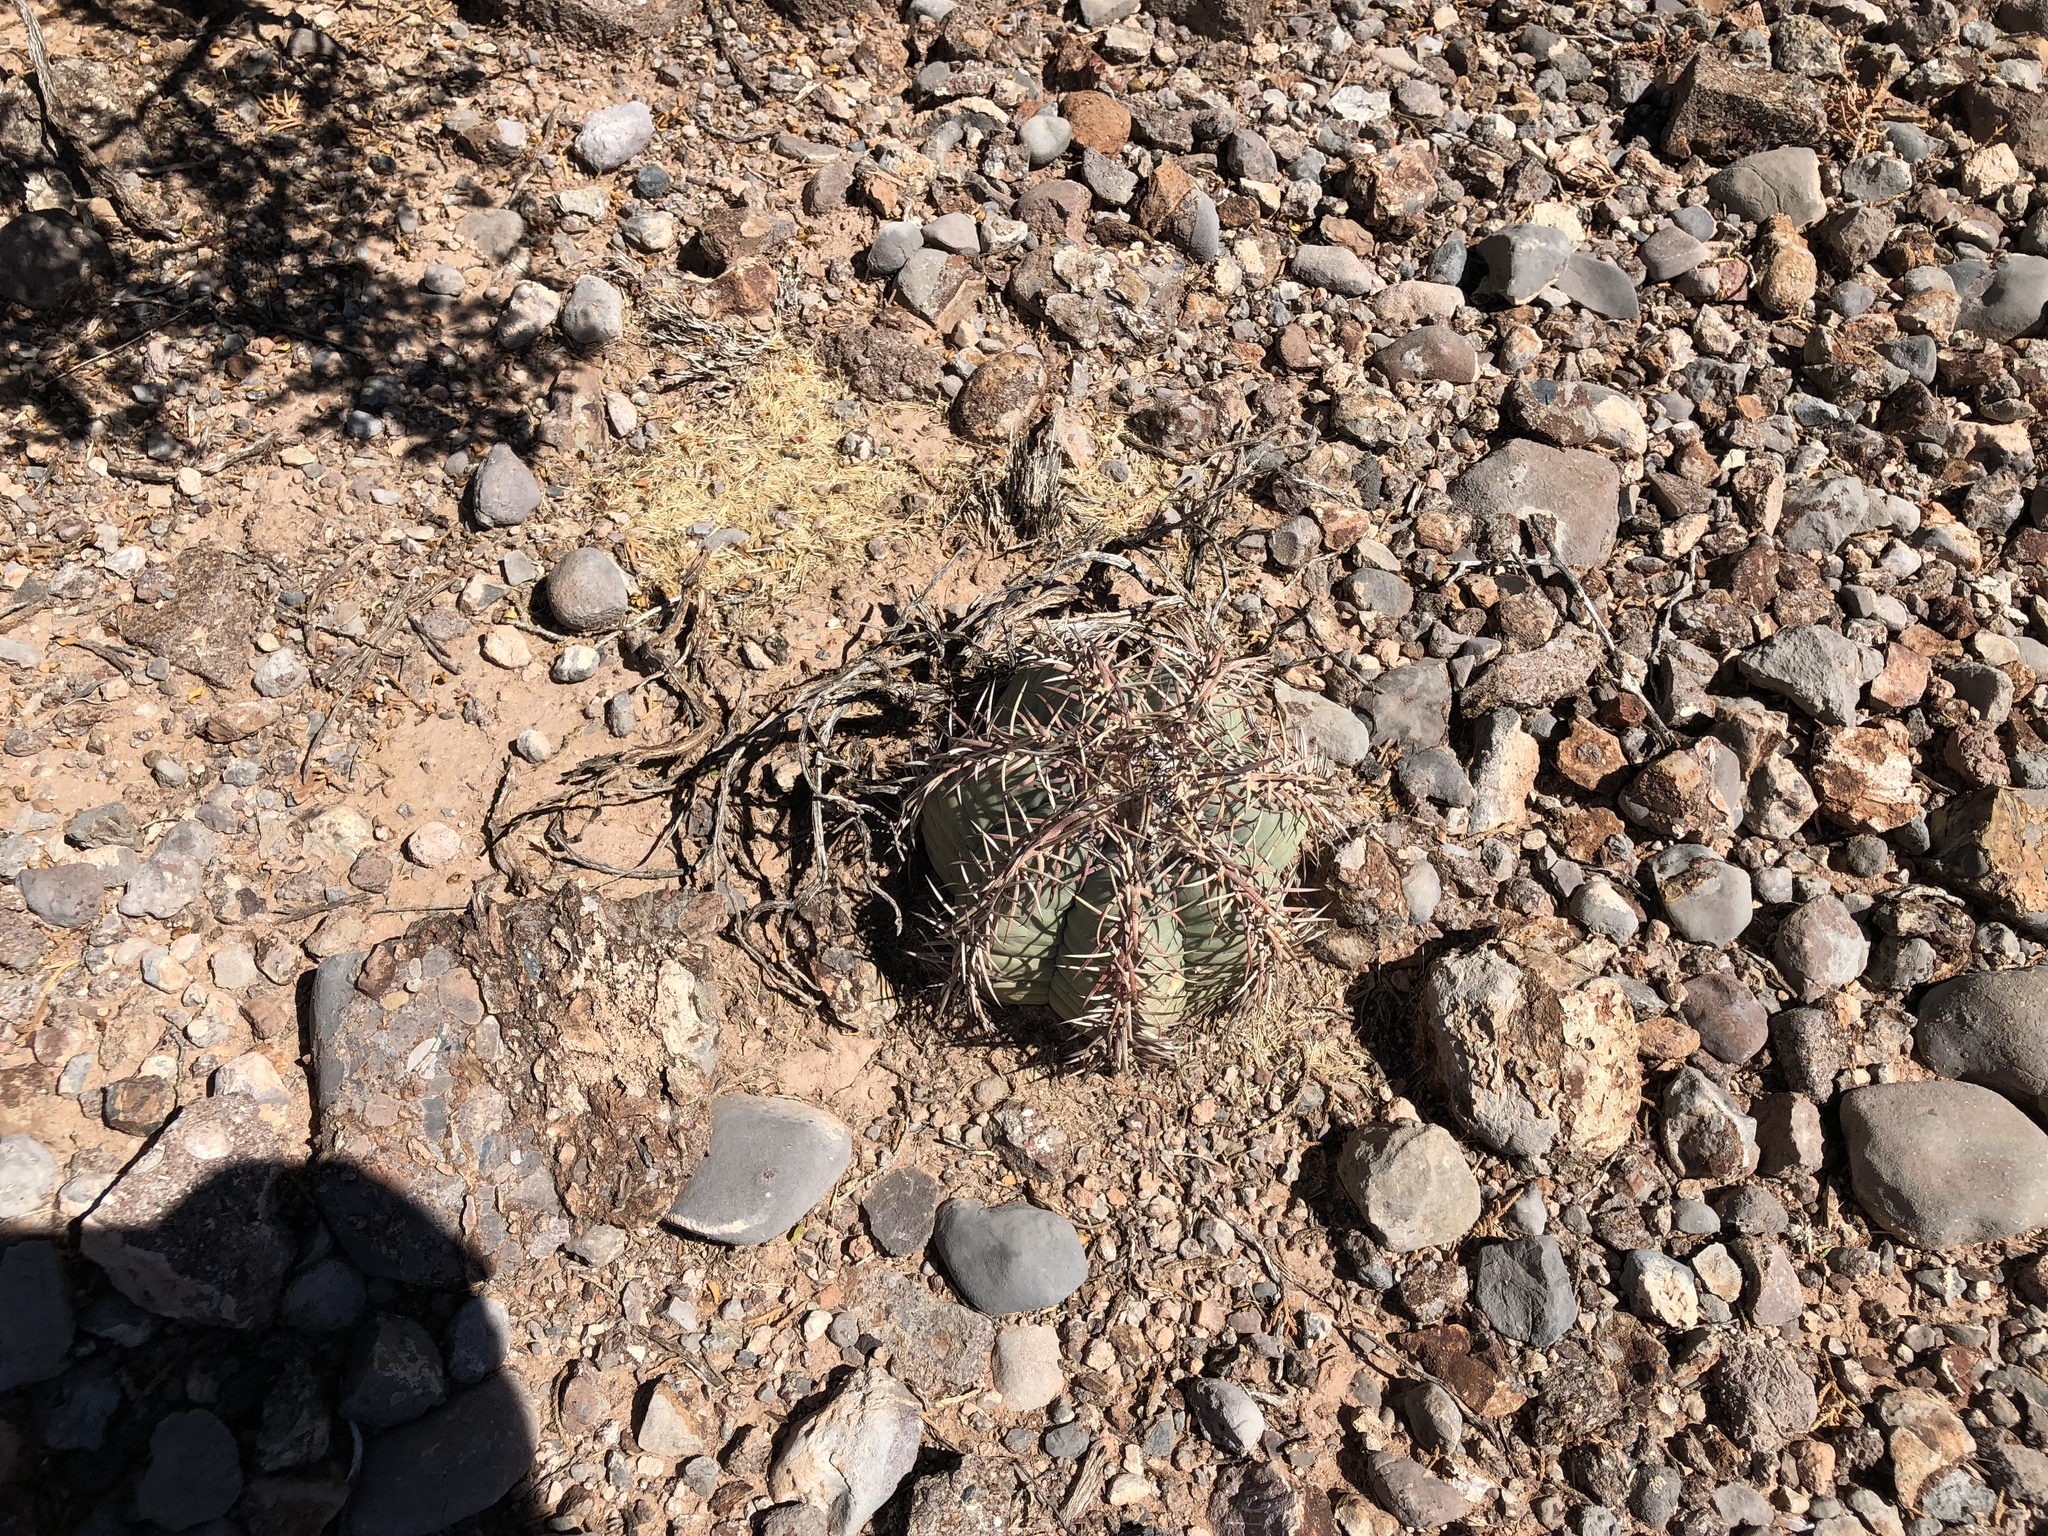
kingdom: Plantae
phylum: Tracheophyta
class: Magnoliopsida
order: Caryophyllales
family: Cactaceae
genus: Echinocactus
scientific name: Echinocactus horizonthalonius
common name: Devilshead
